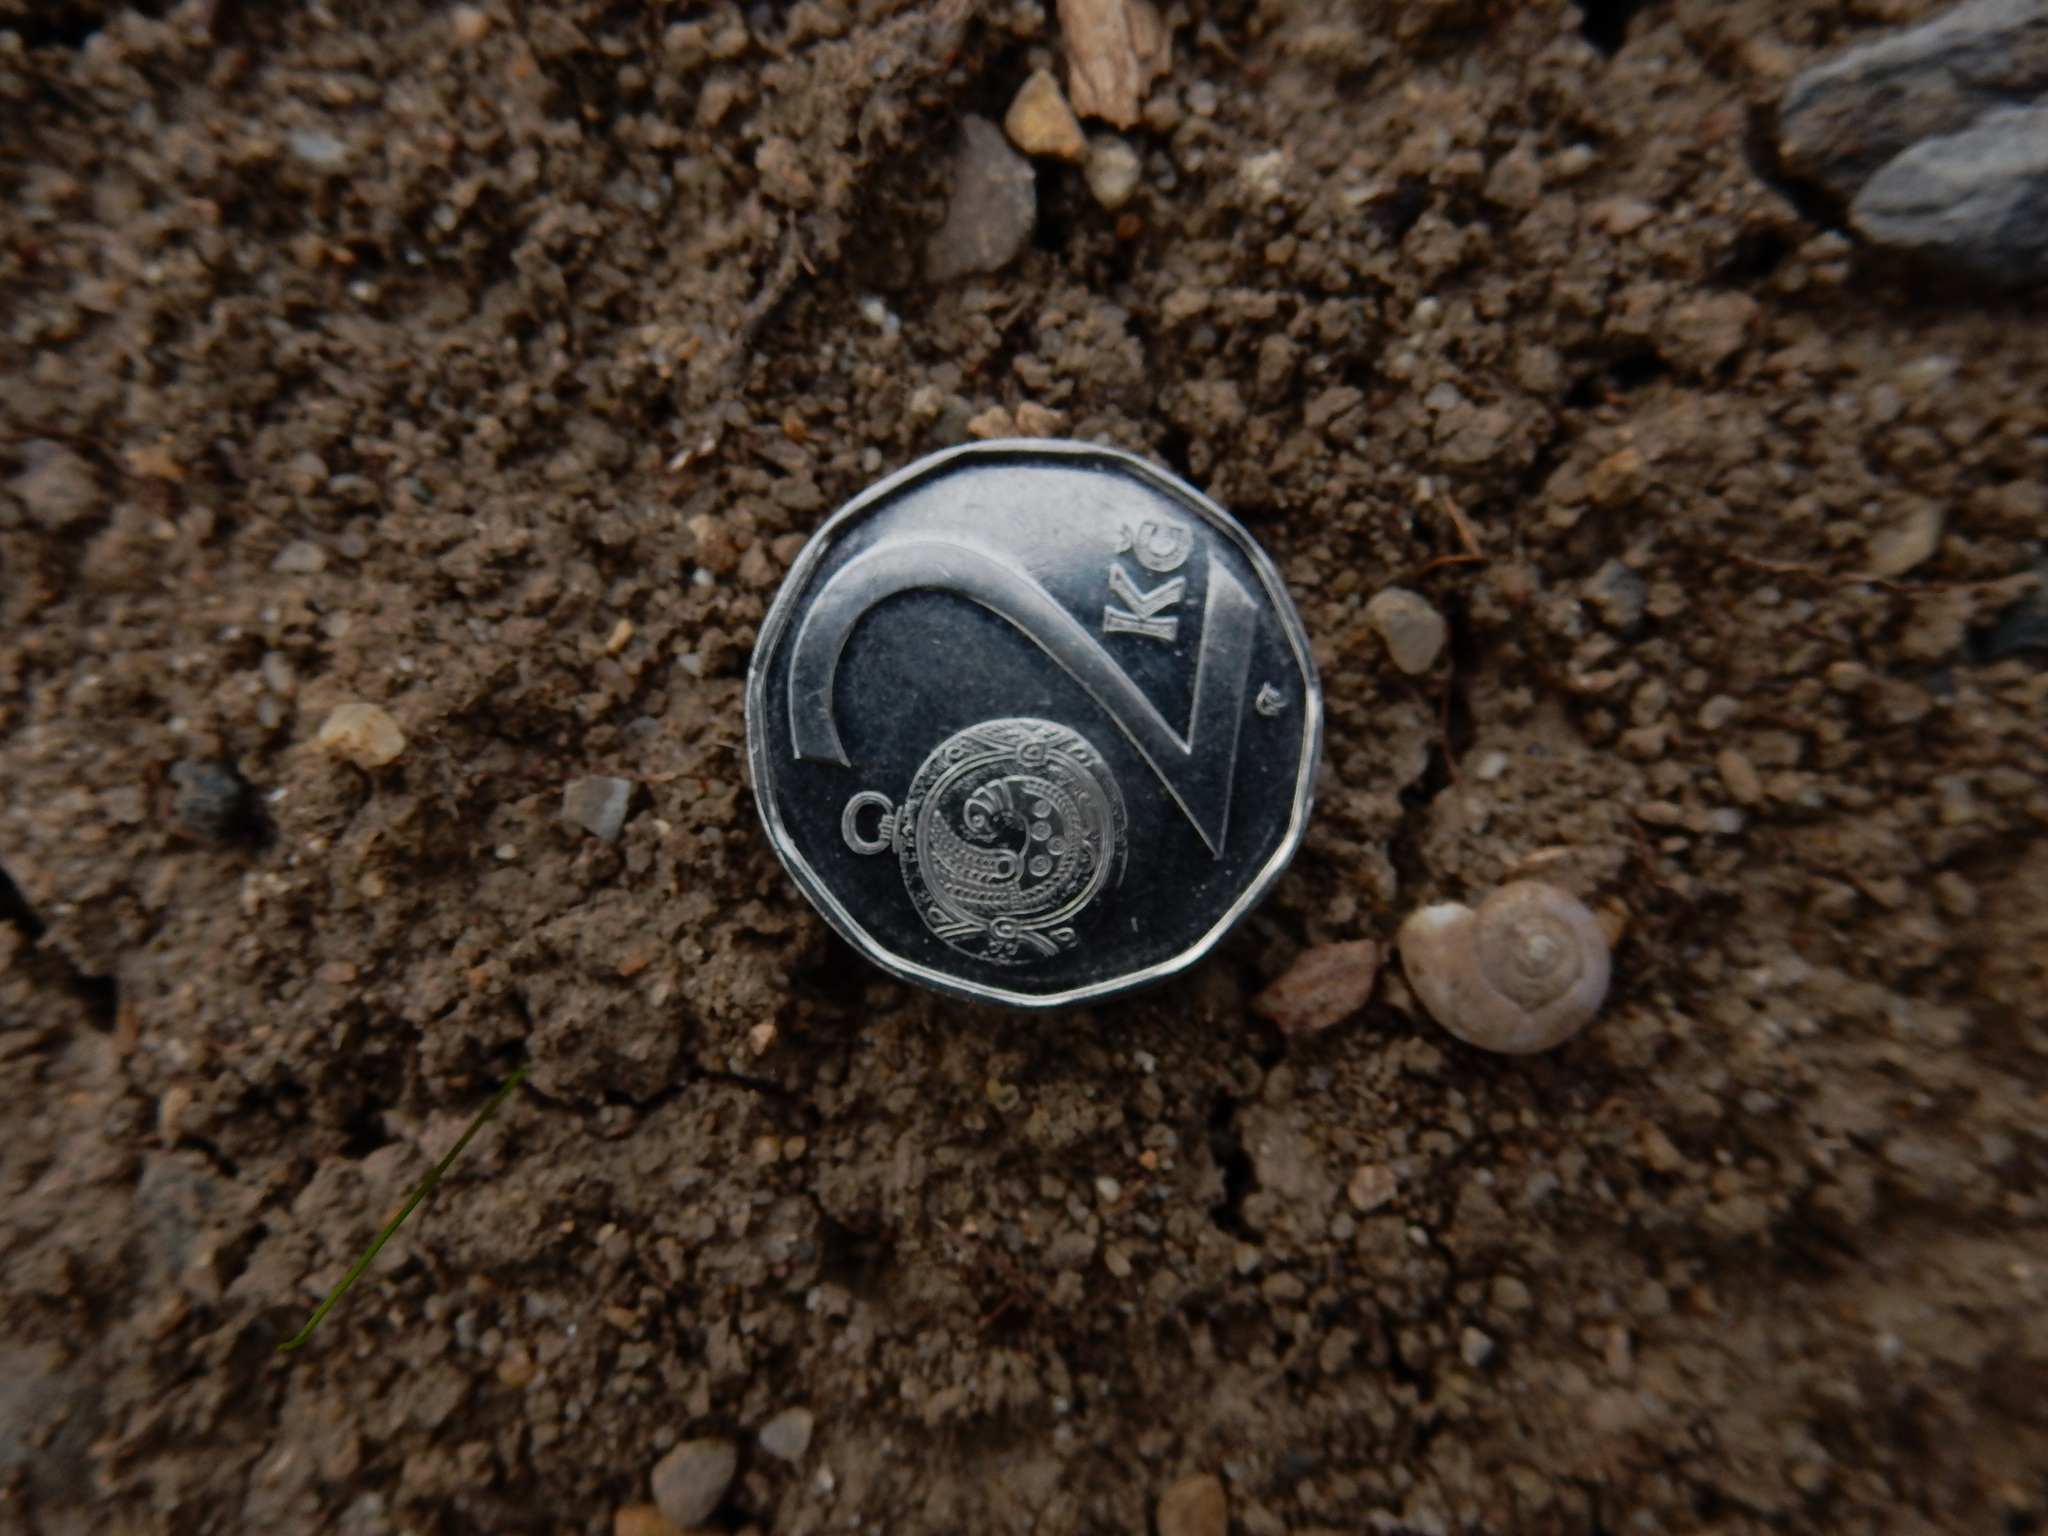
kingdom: Animalia
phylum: Mollusca
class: Gastropoda
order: Stylommatophora
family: Valloniidae
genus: Vallonia
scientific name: Vallonia pulchella
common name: Smooth grass snail
